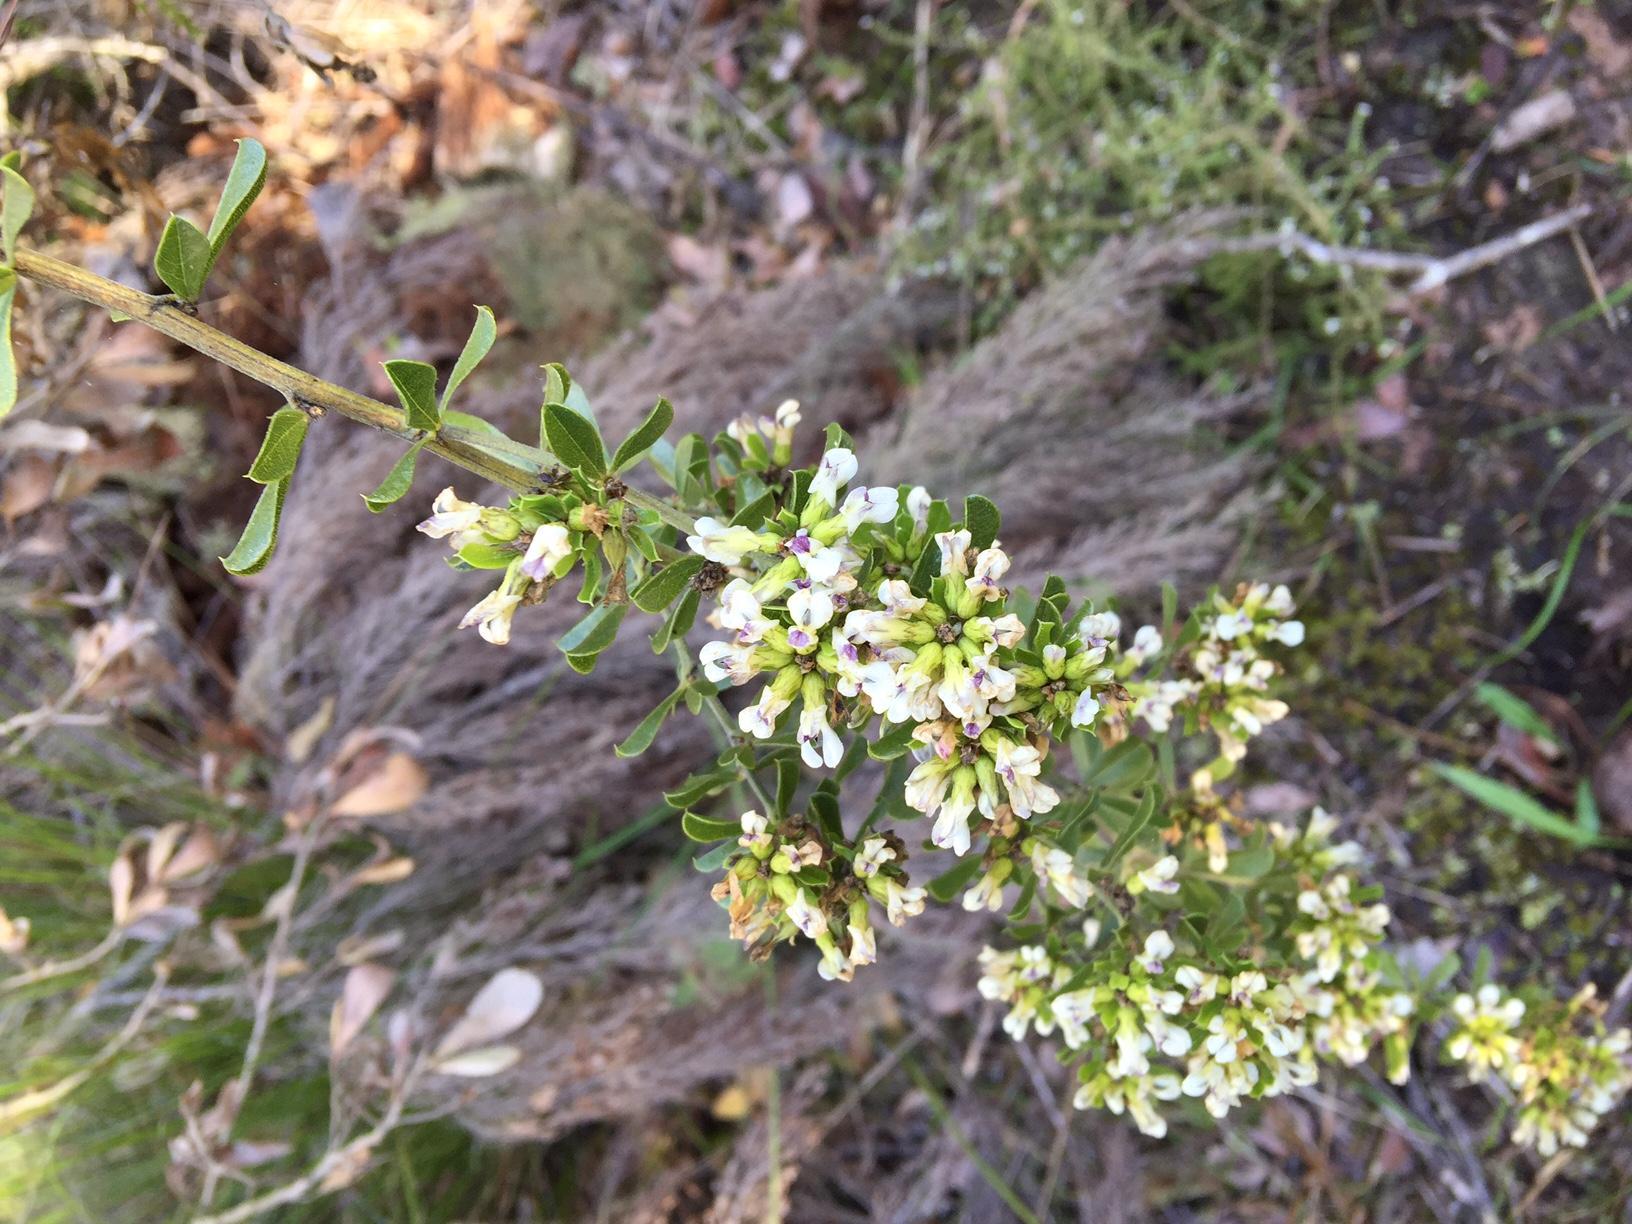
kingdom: Plantae
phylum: Tracheophyta
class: Magnoliopsida
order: Fabales
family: Fabaceae
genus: Psoralea
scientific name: Psoralea stachyera
